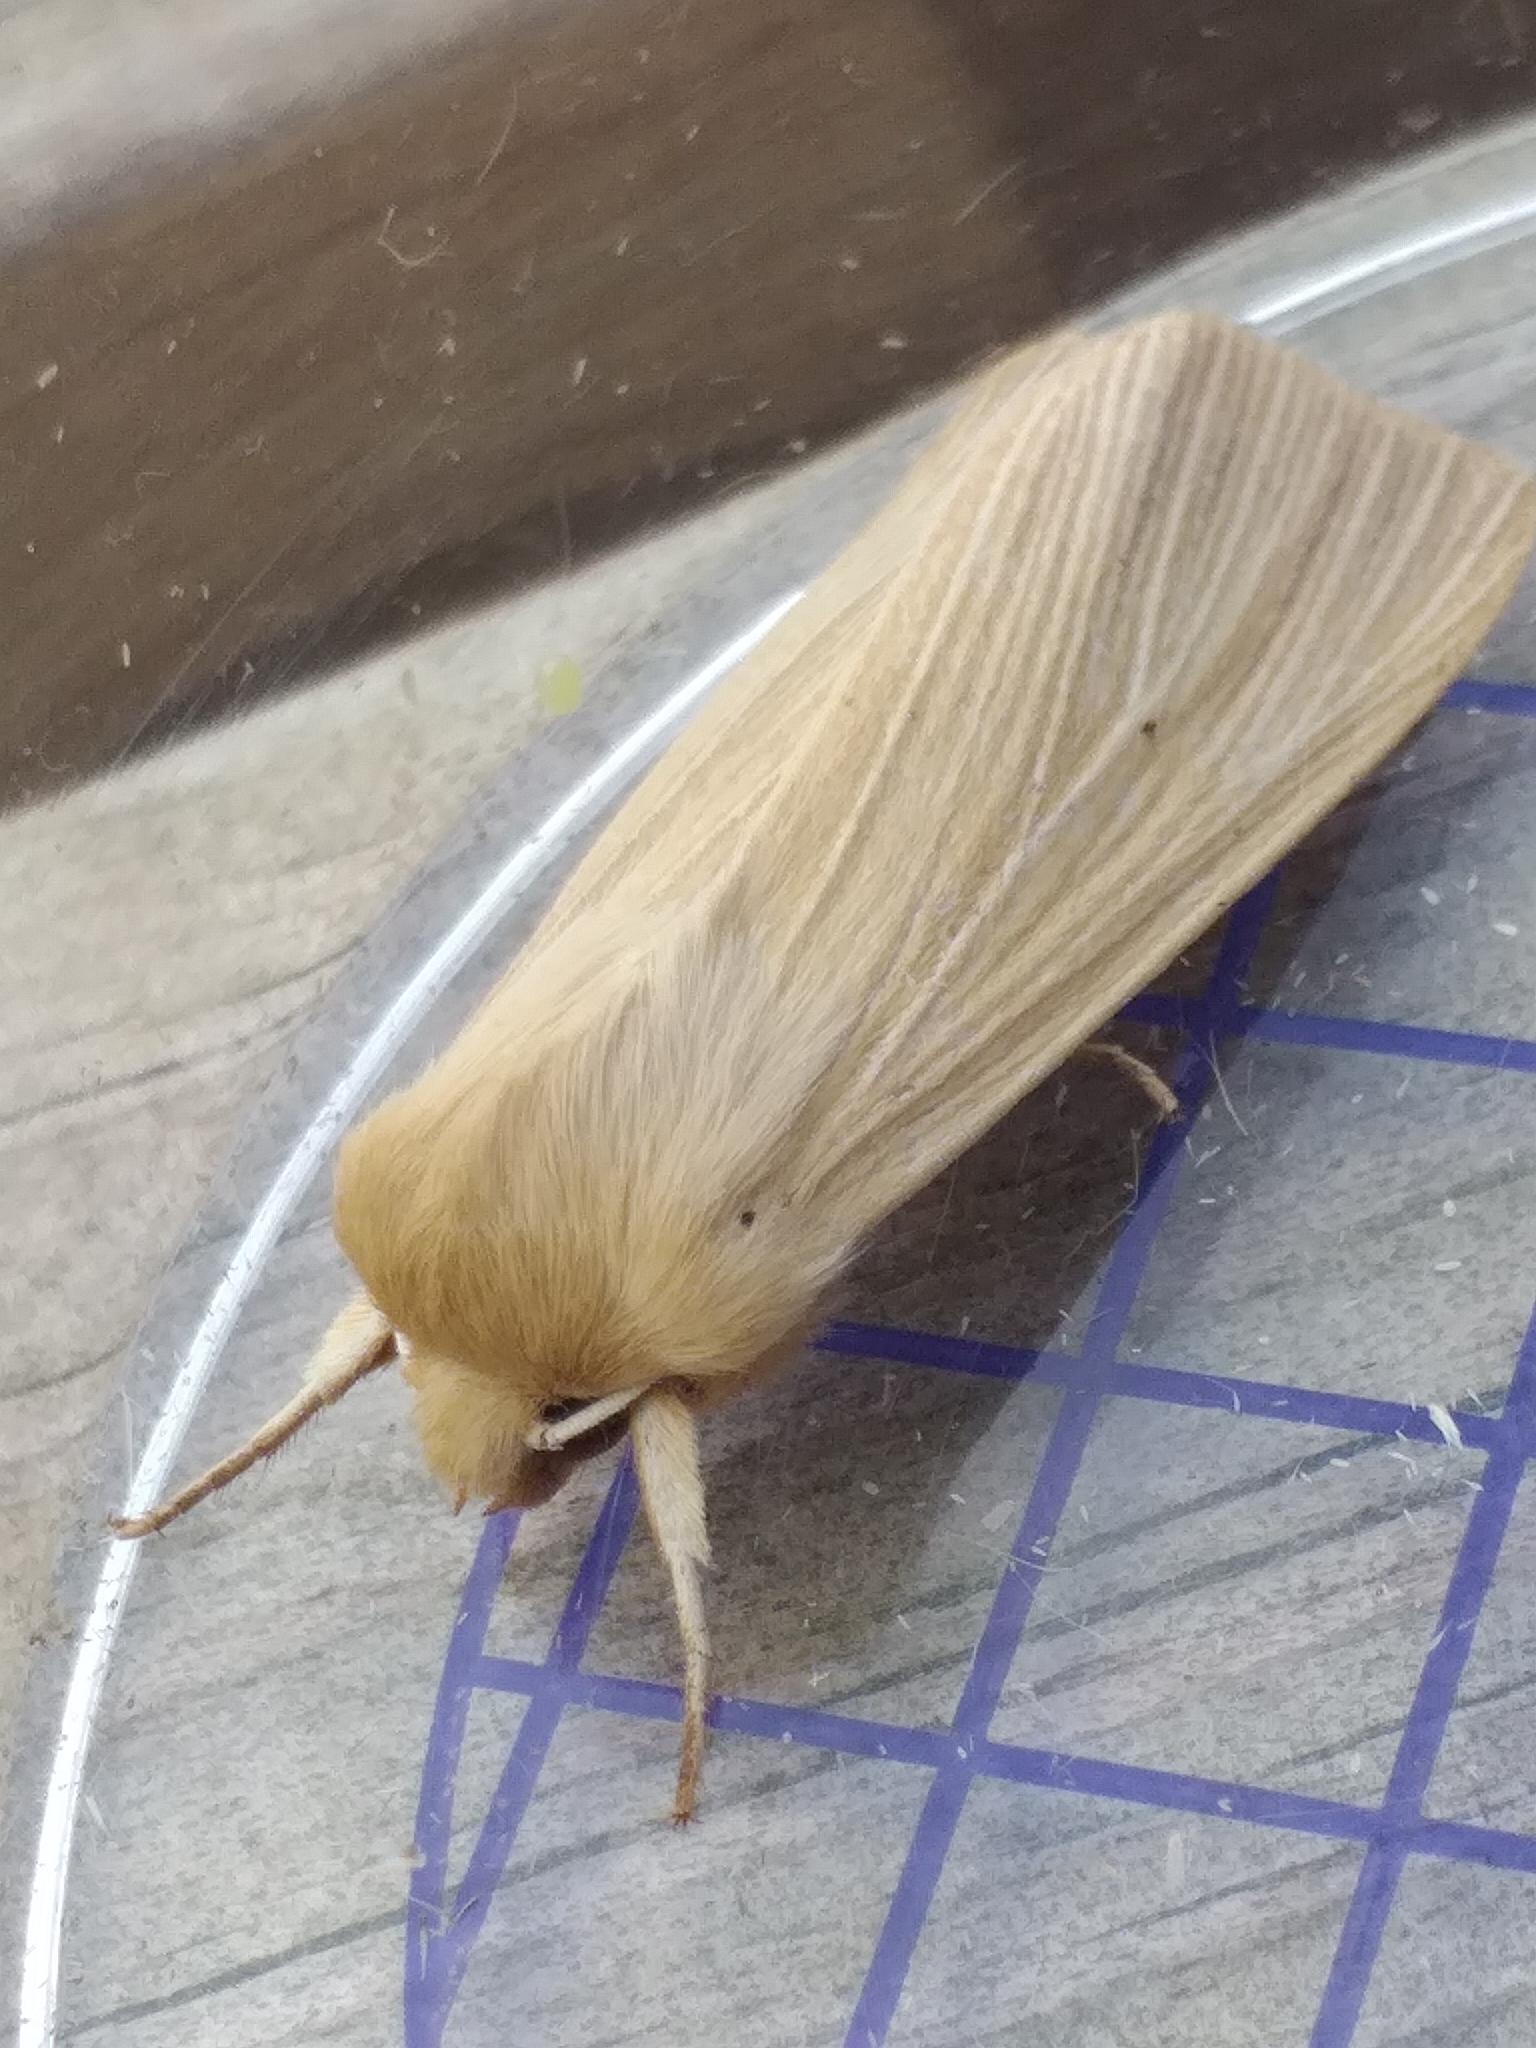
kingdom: Animalia
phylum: Arthropoda
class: Insecta
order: Lepidoptera
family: Noctuidae
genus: Mythimna
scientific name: Mythimna pallens
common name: Common wainscot
